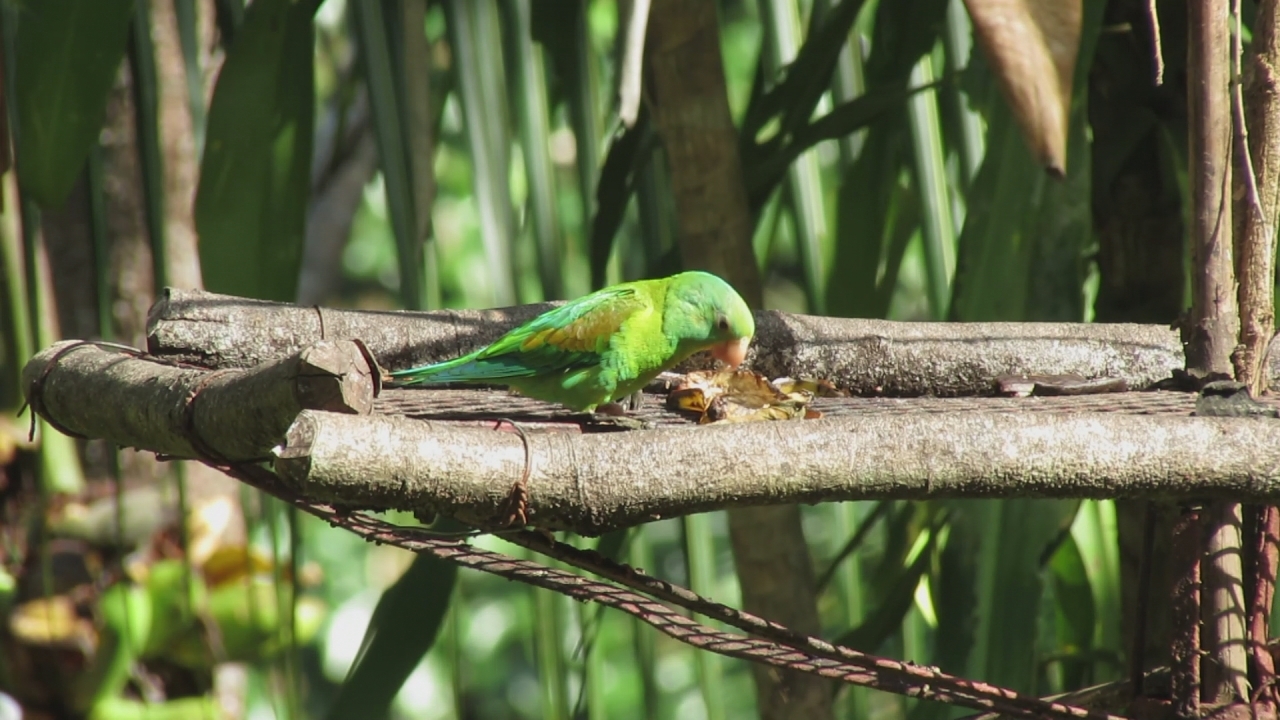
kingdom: Animalia
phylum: Chordata
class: Aves
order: Psittaciformes
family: Psittacidae
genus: Brotogeris
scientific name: Brotogeris jugularis
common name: Orange-chinned parakeet
